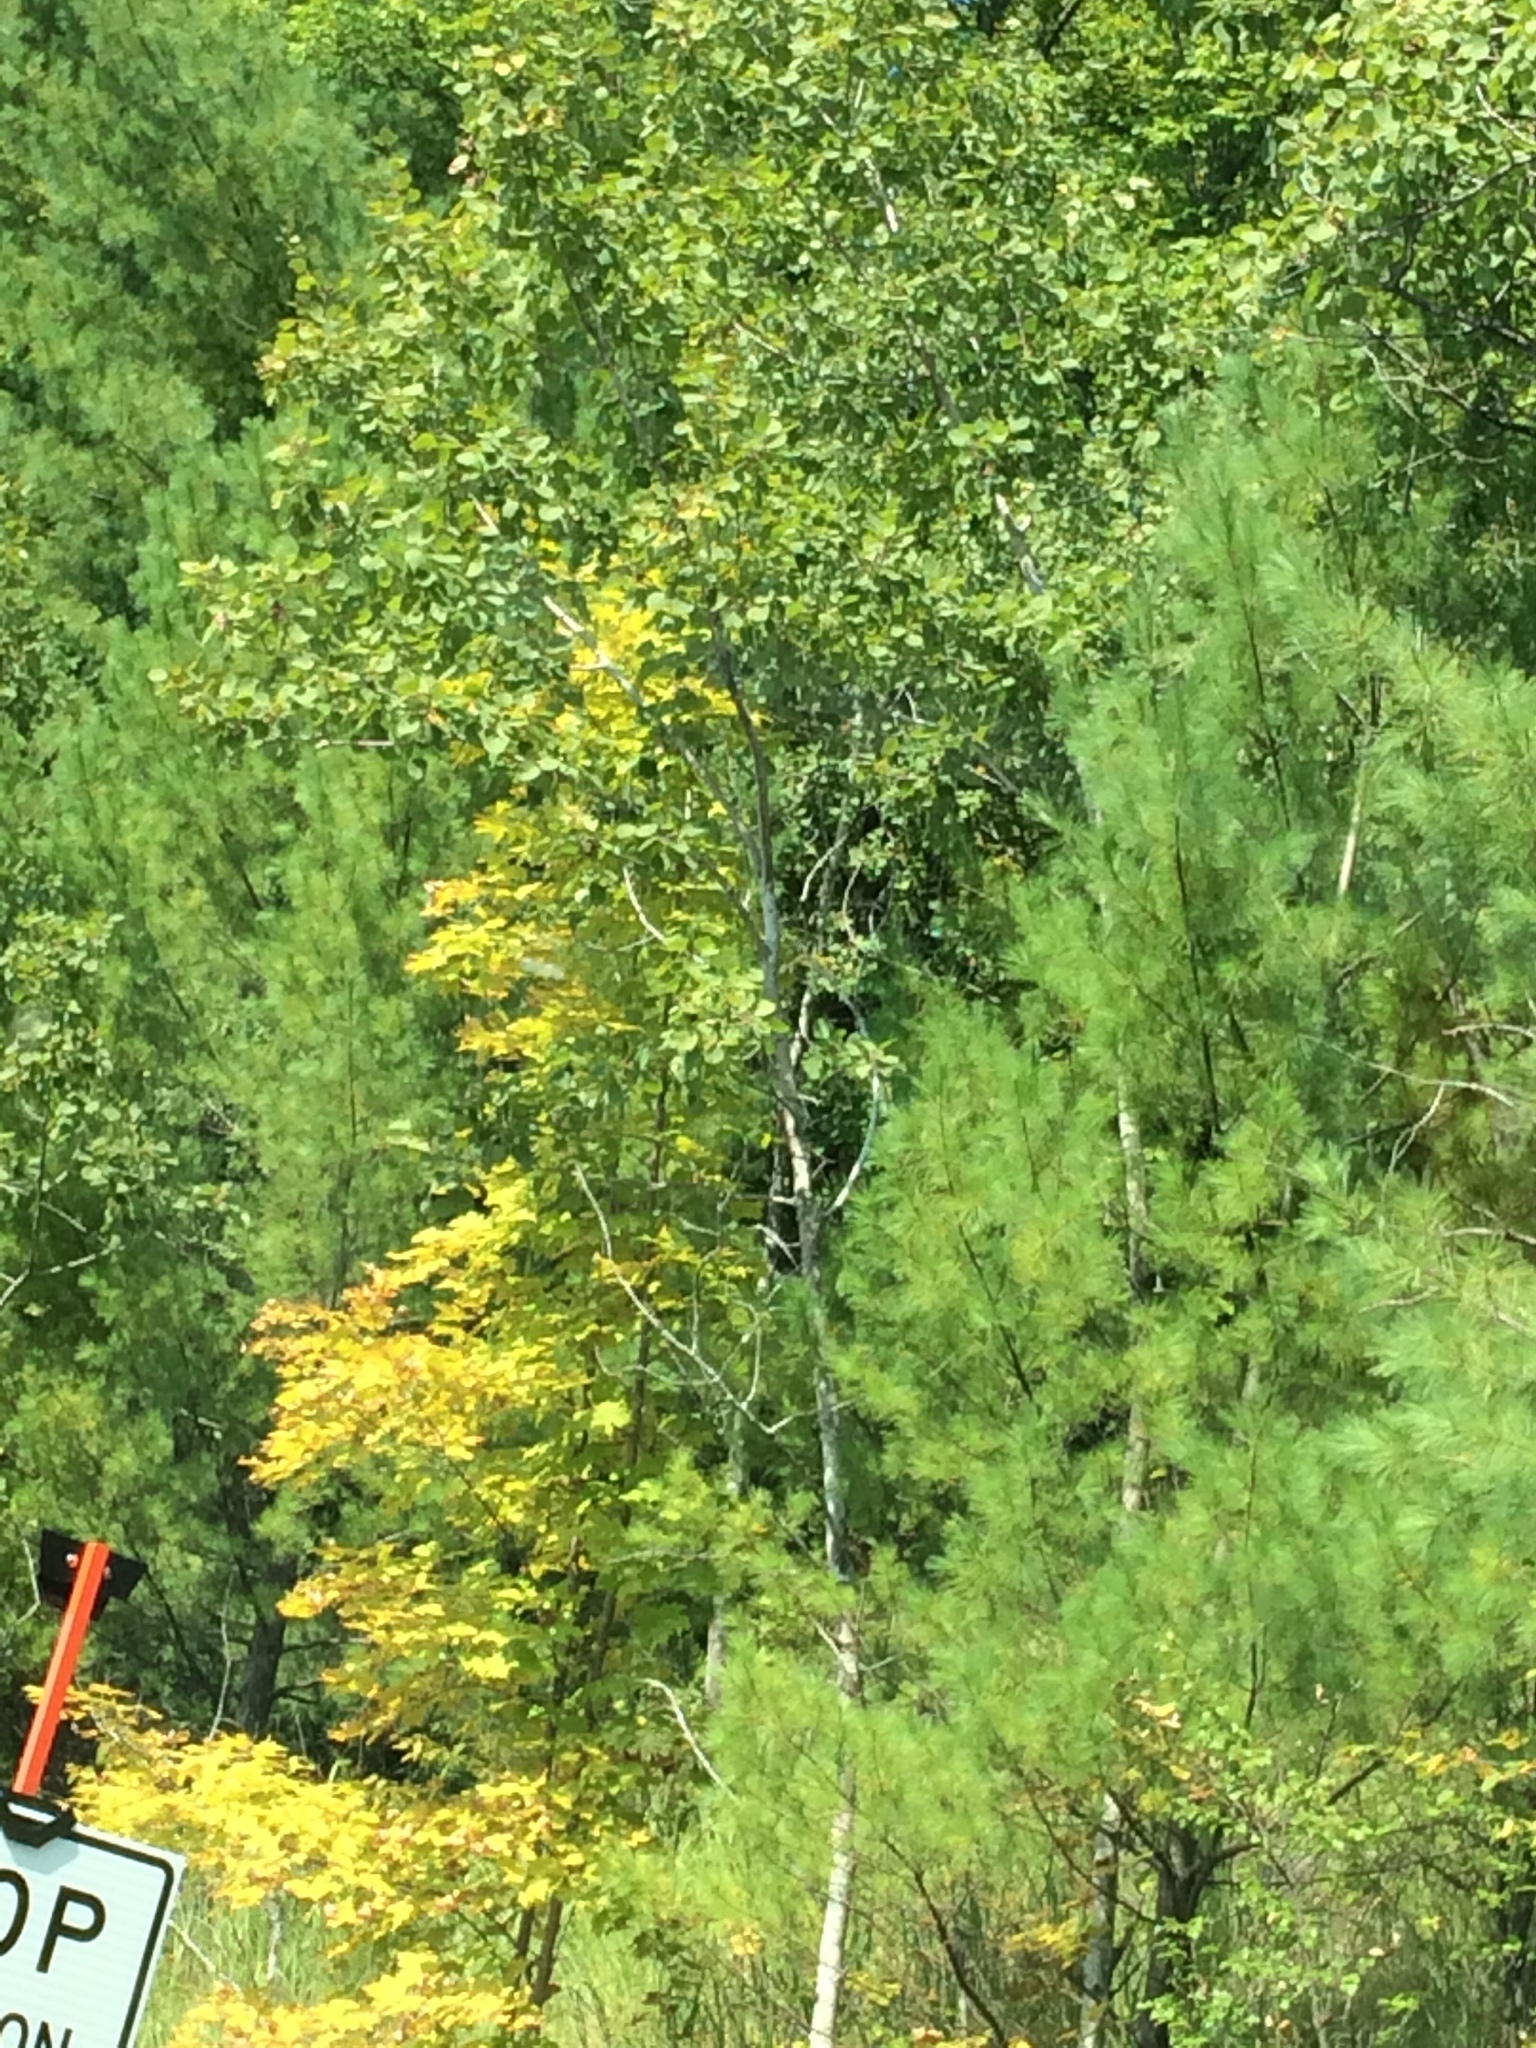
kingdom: Plantae
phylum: Tracheophyta
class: Magnoliopsida
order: Malpighiales
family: Salicaceae
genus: Populus
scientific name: Populus tremuloides
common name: Quaking aspen
